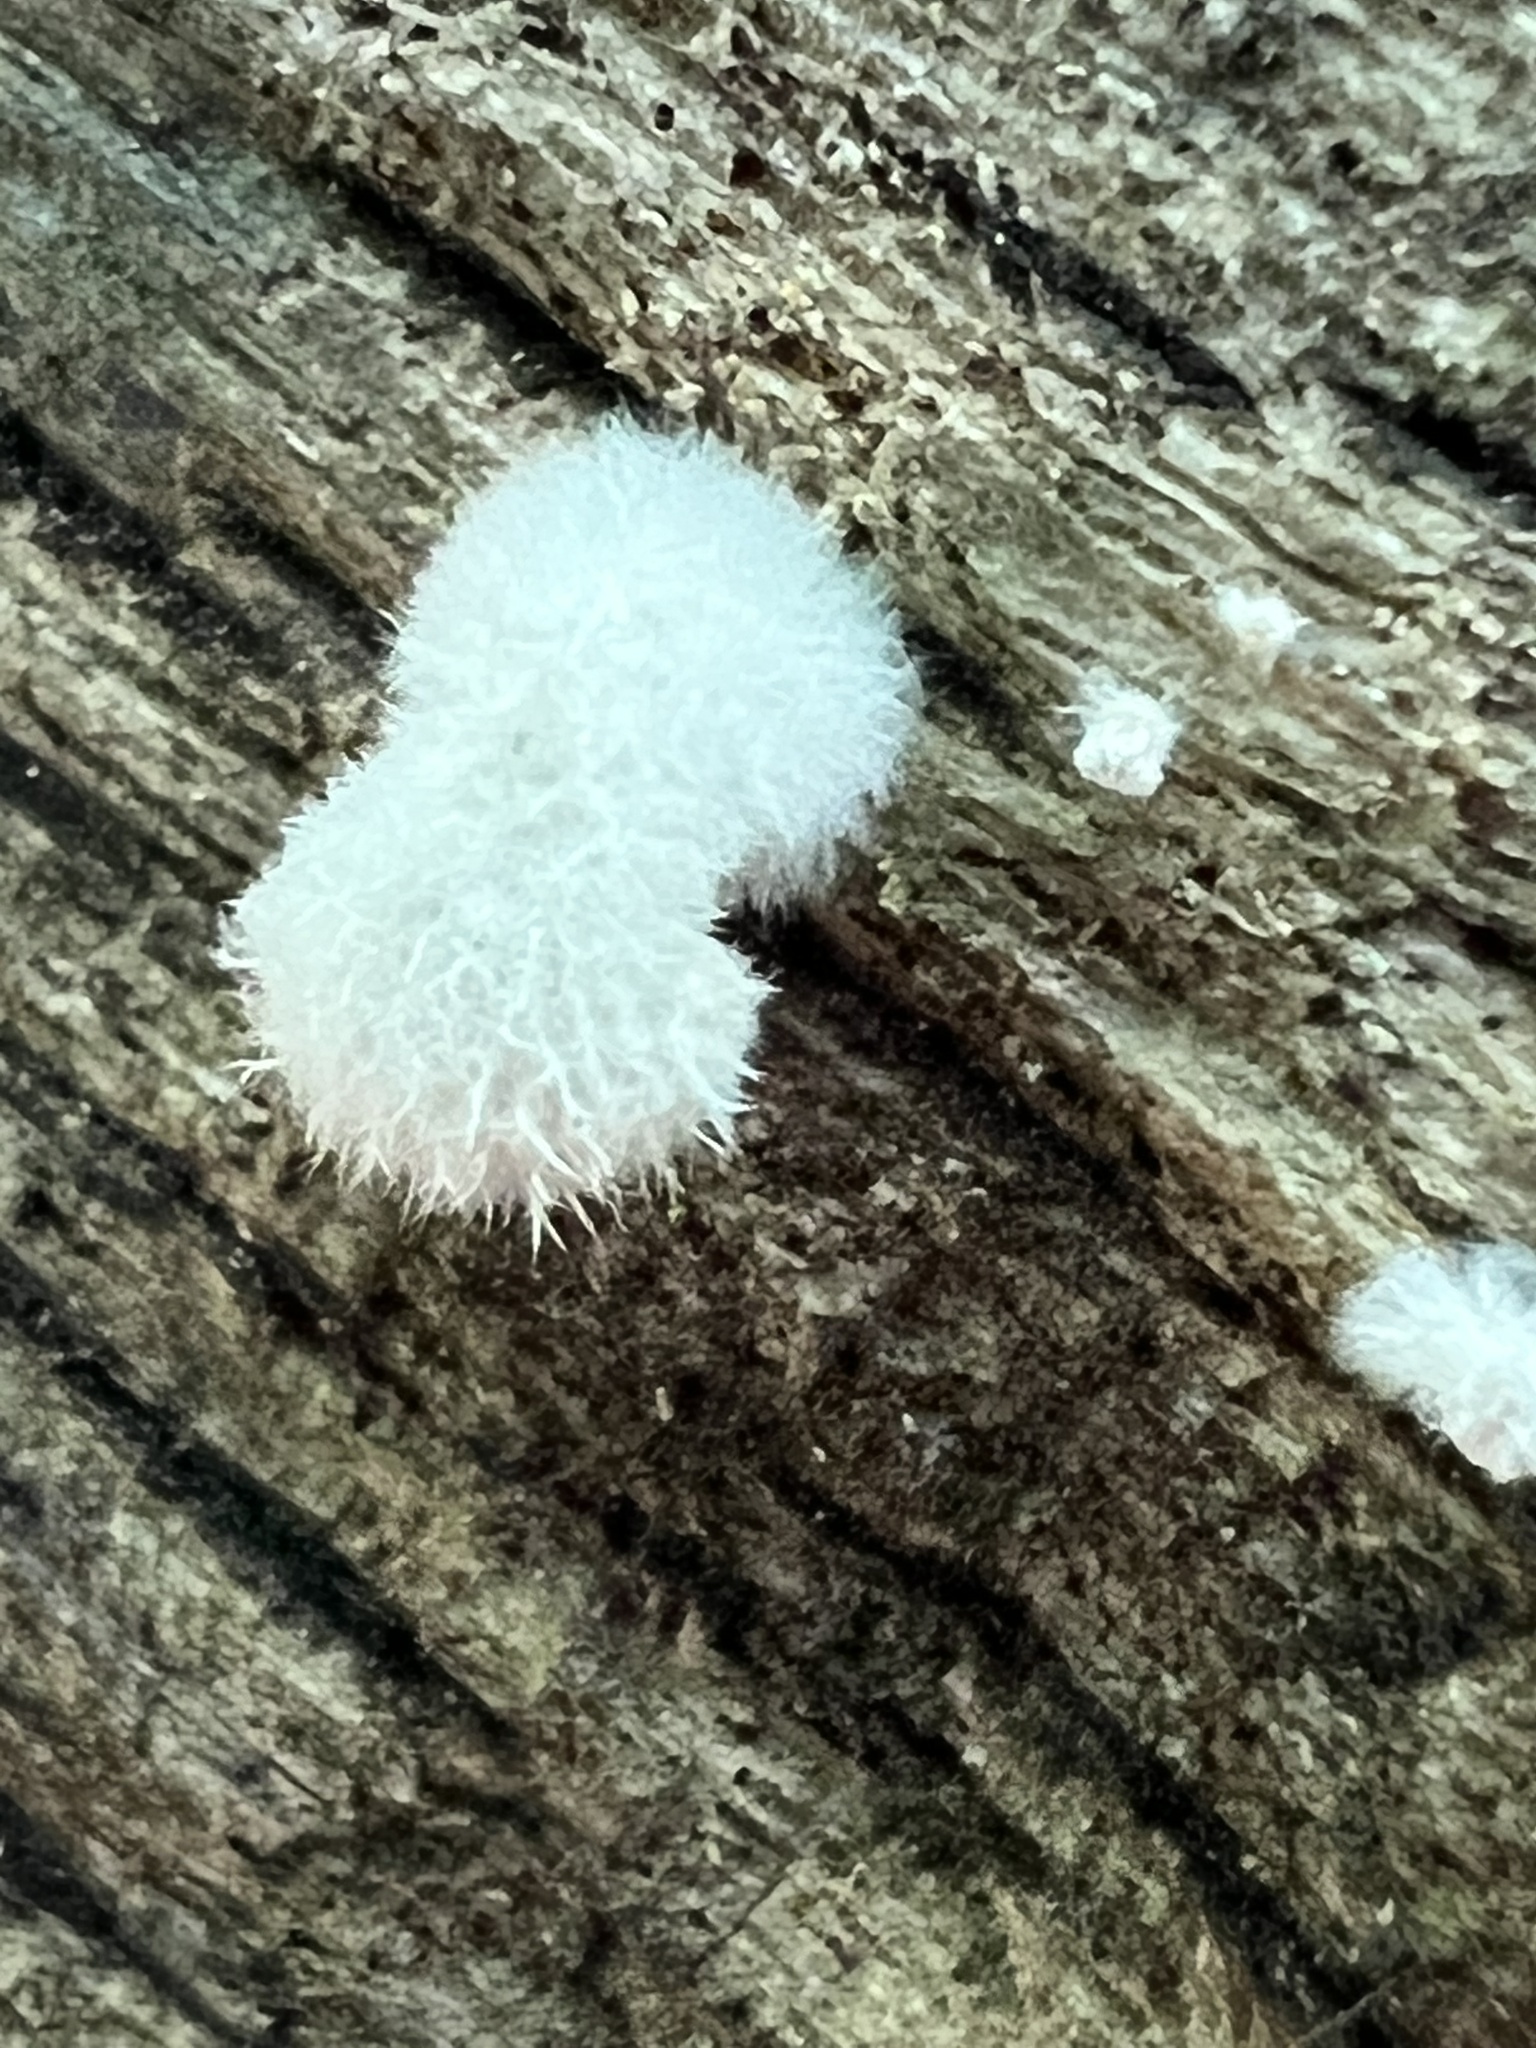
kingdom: Fungi
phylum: Basidiomycota
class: Agaricomycetes
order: Agaricales
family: Schizophyllaceae
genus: Schizophyllum
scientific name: Schizophyllum commune
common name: Common porecrust
